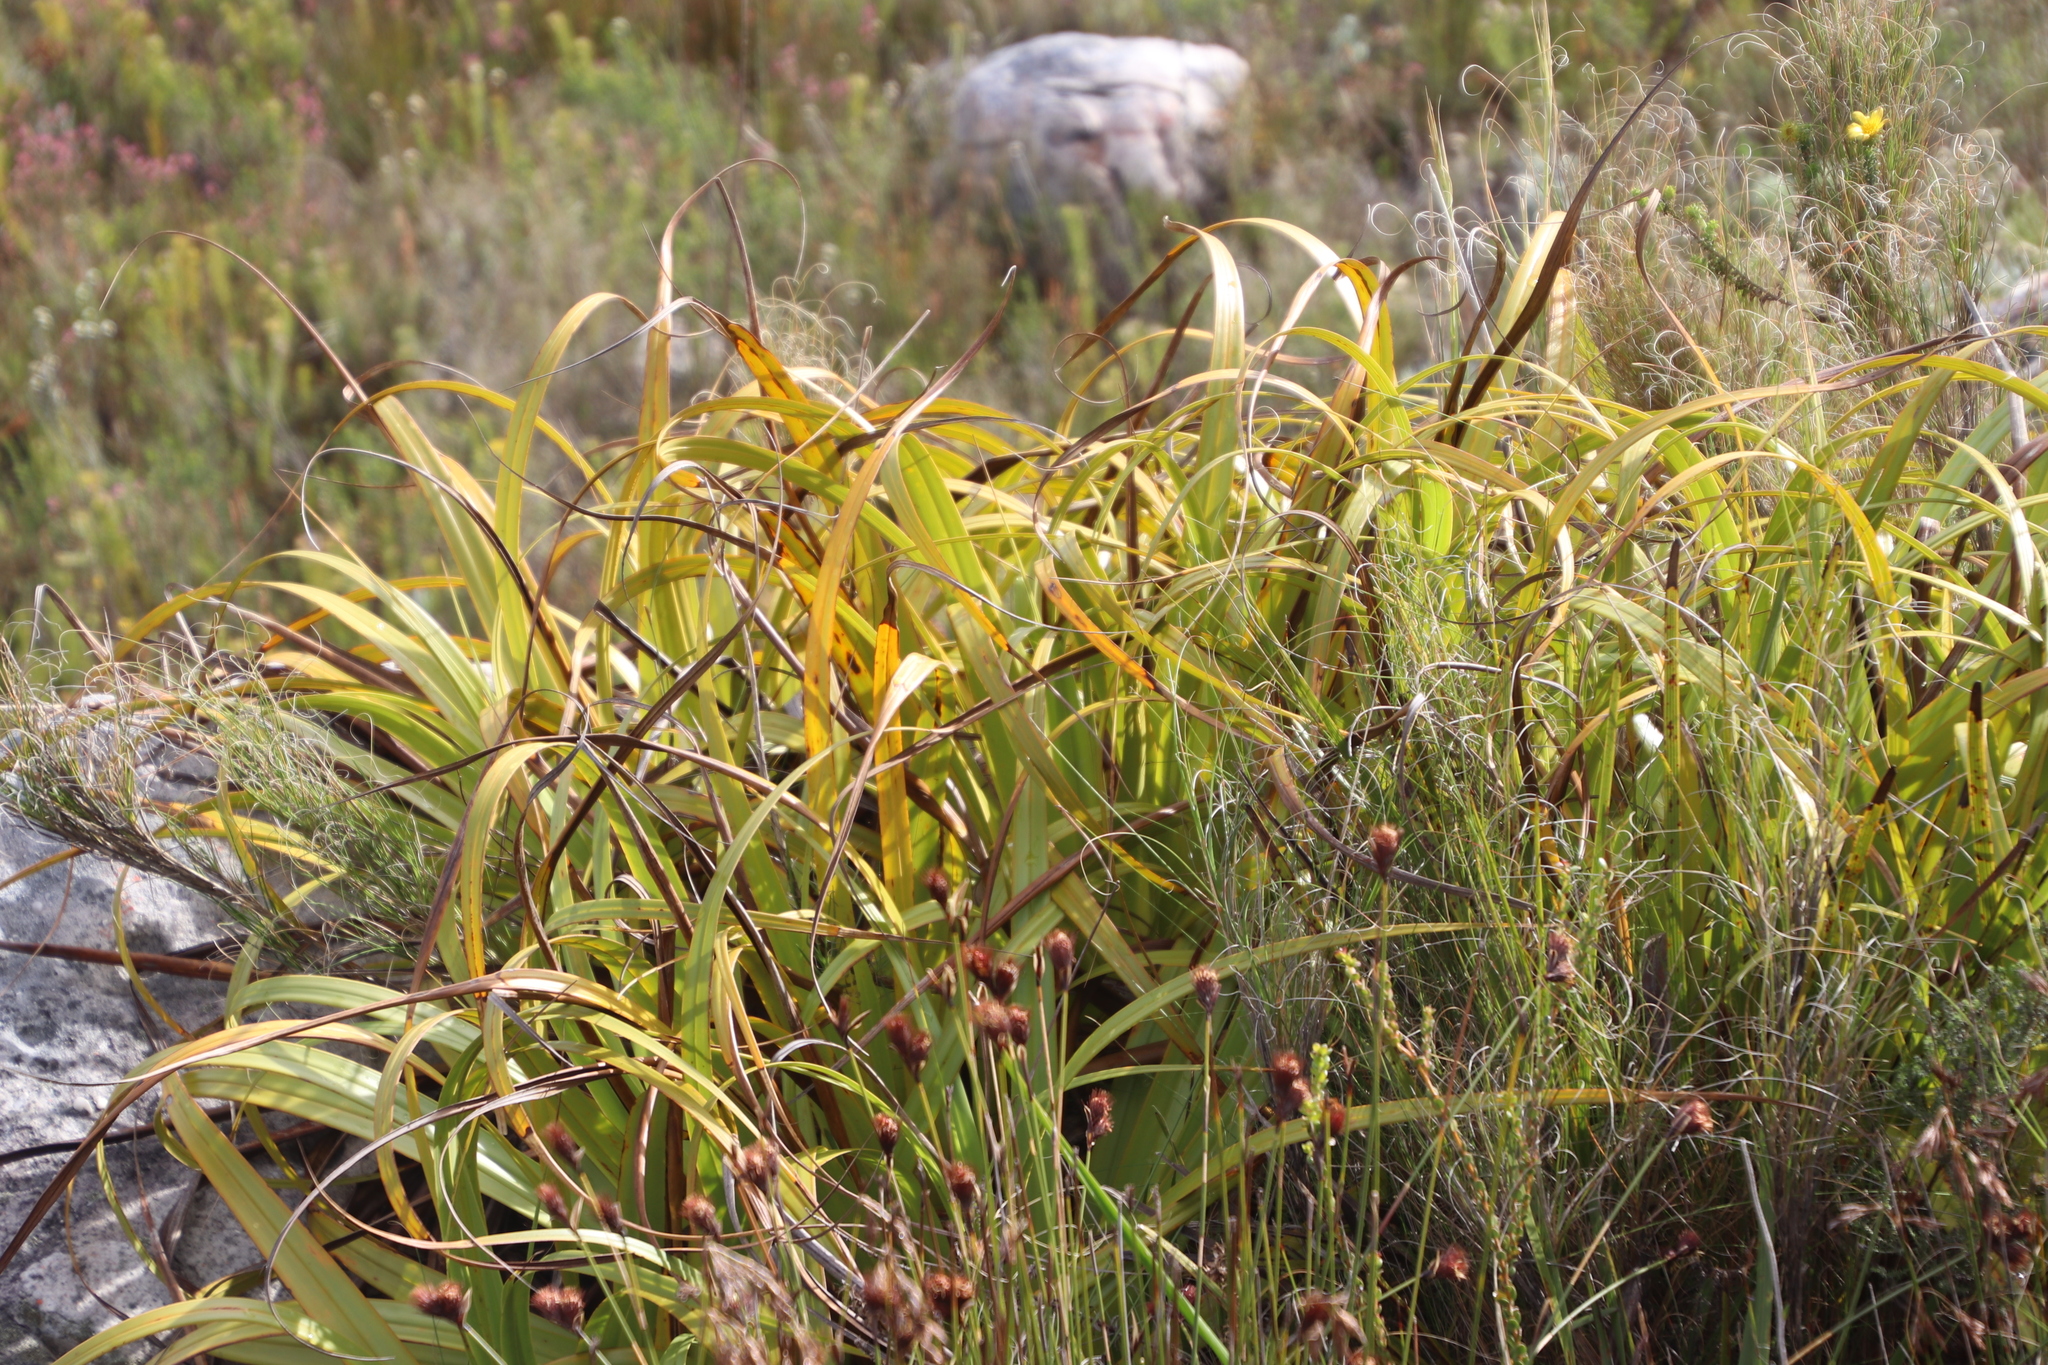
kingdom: Plantae
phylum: Tracheophyta
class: Liliopsida
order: Poales
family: Cyperaceae
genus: Tetraria
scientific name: Tetraria thermalis
